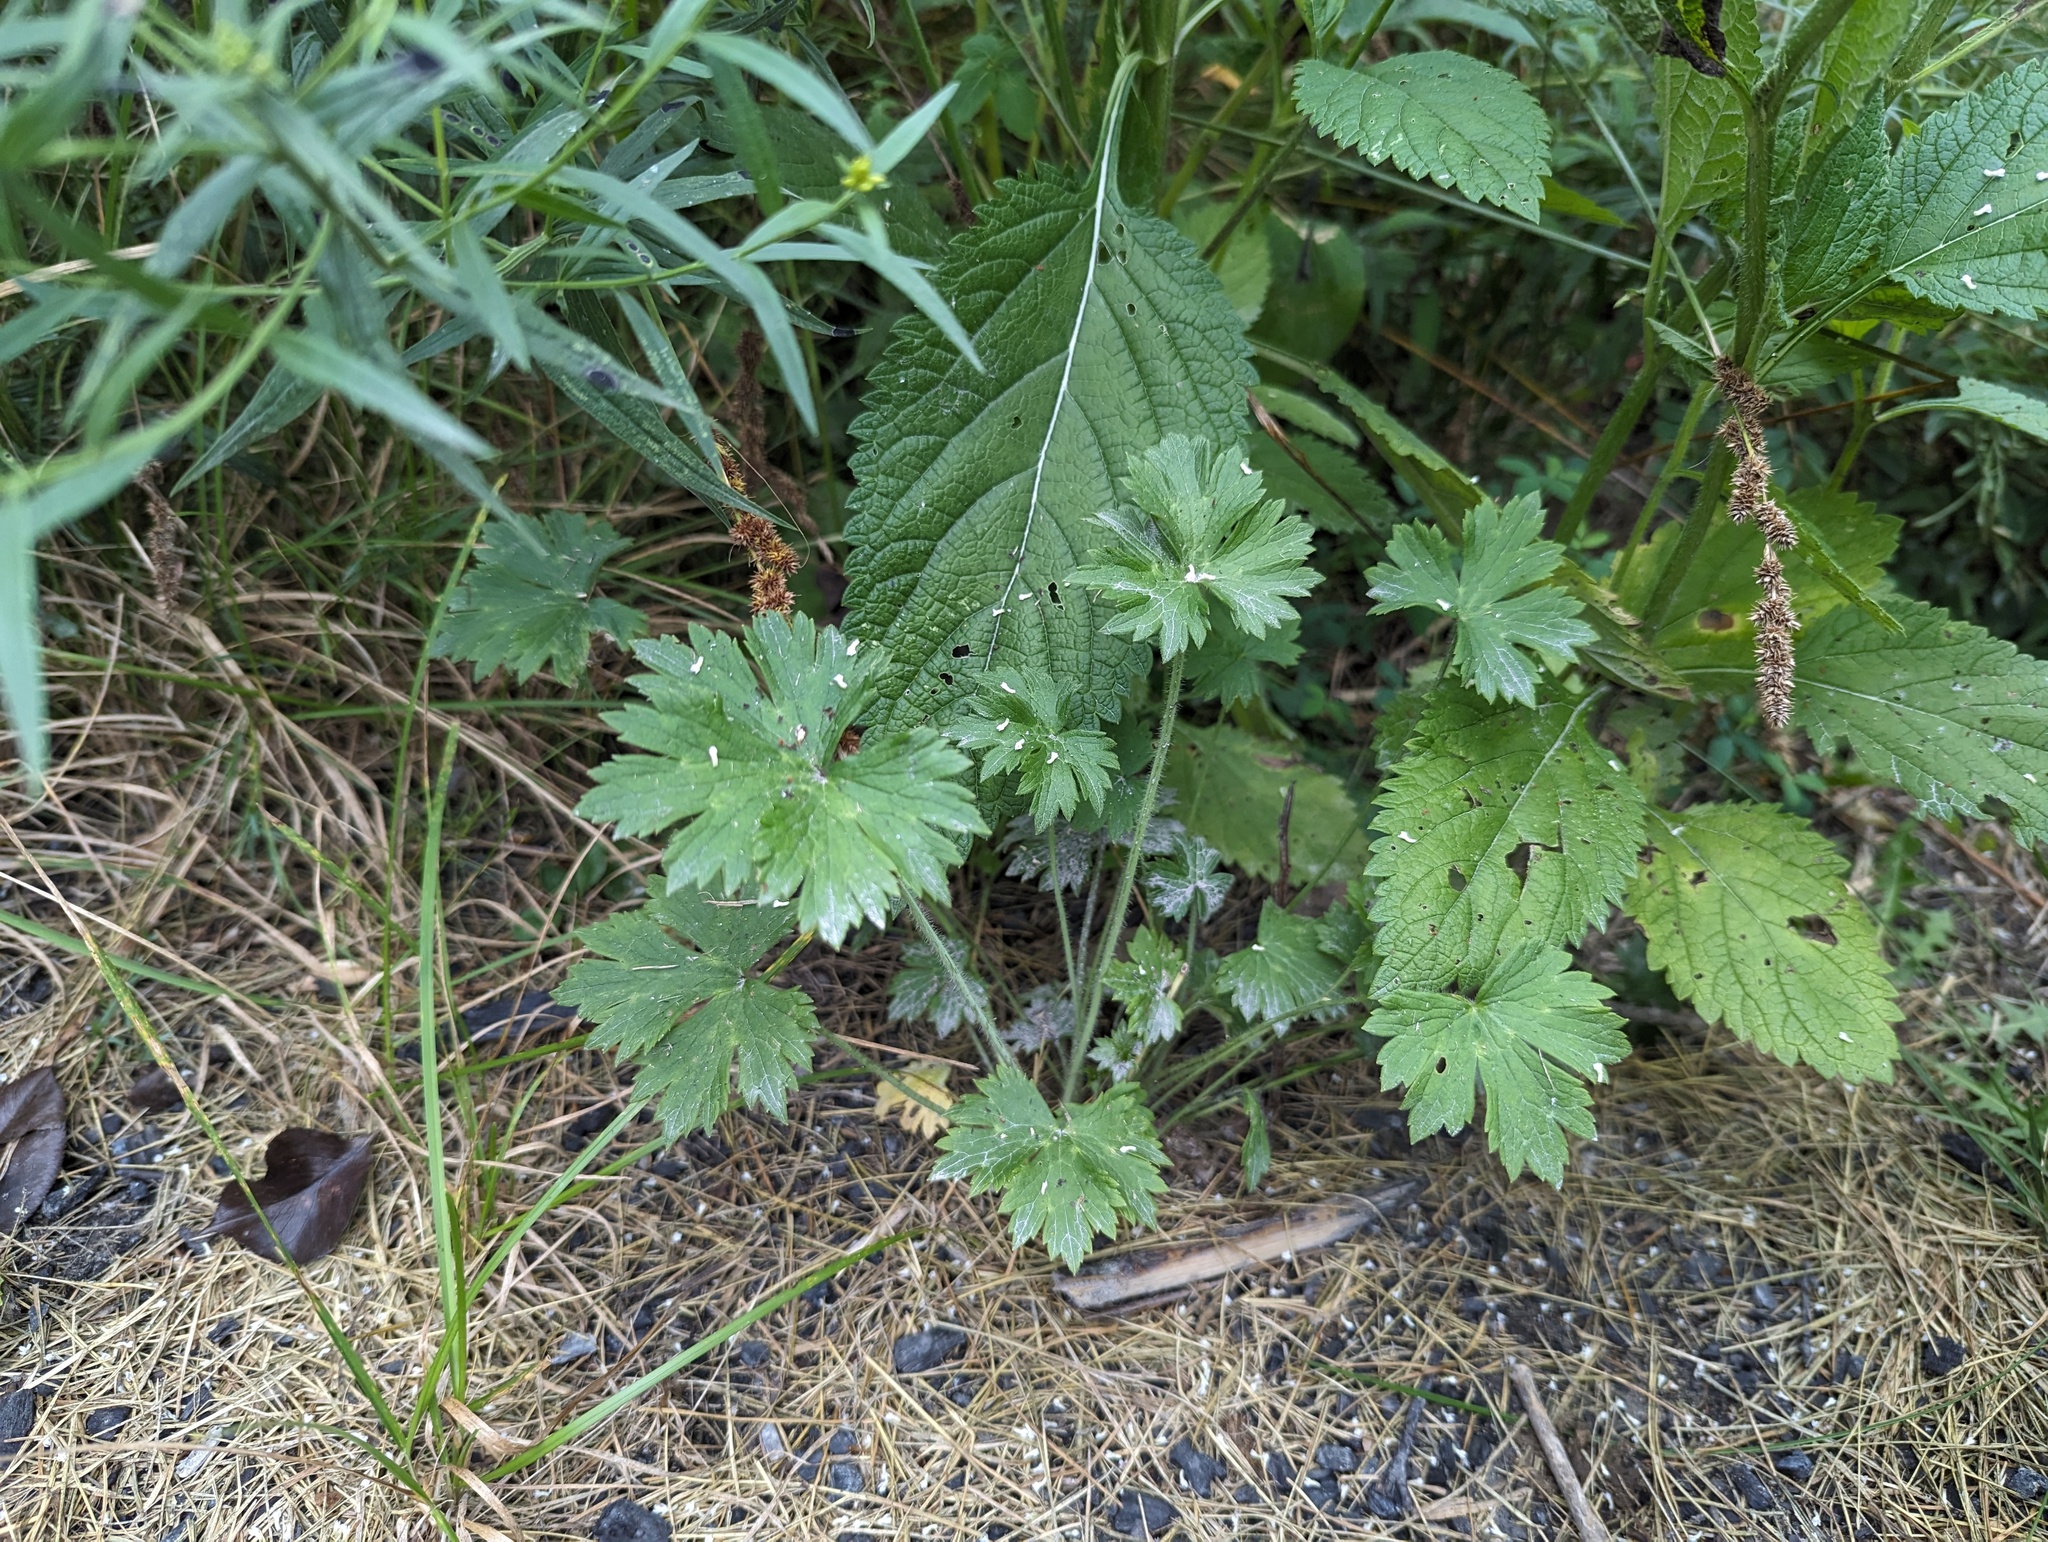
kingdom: Plantae
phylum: Tracheophyta
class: Magnoliopsida
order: Ranunculales
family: Ranunculaceae
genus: Ranunculus
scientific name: Ranunculus acris
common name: Meadow buttercup
